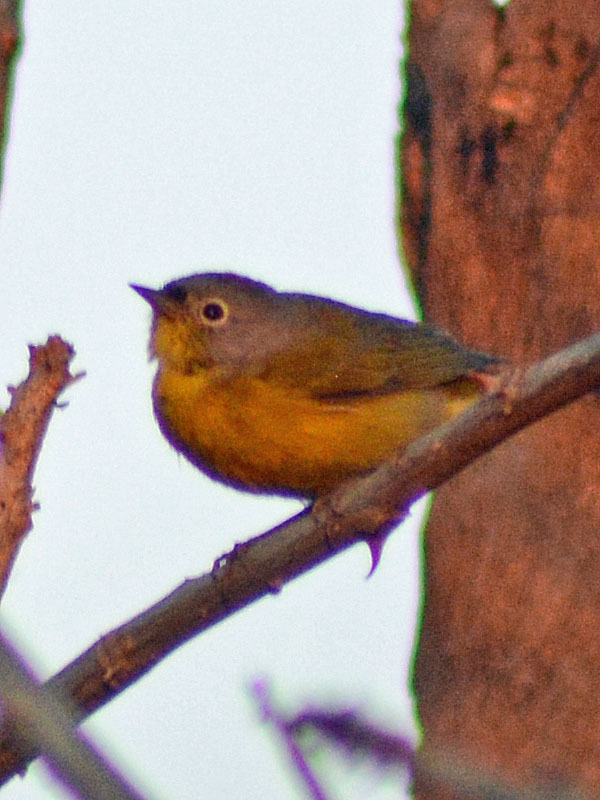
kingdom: Animalia
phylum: Chordata
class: Aves
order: Passeriformes
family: Parulidae
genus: Leiothlypis
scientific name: Leiothlypis ruficapilla
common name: Nashville warbler
